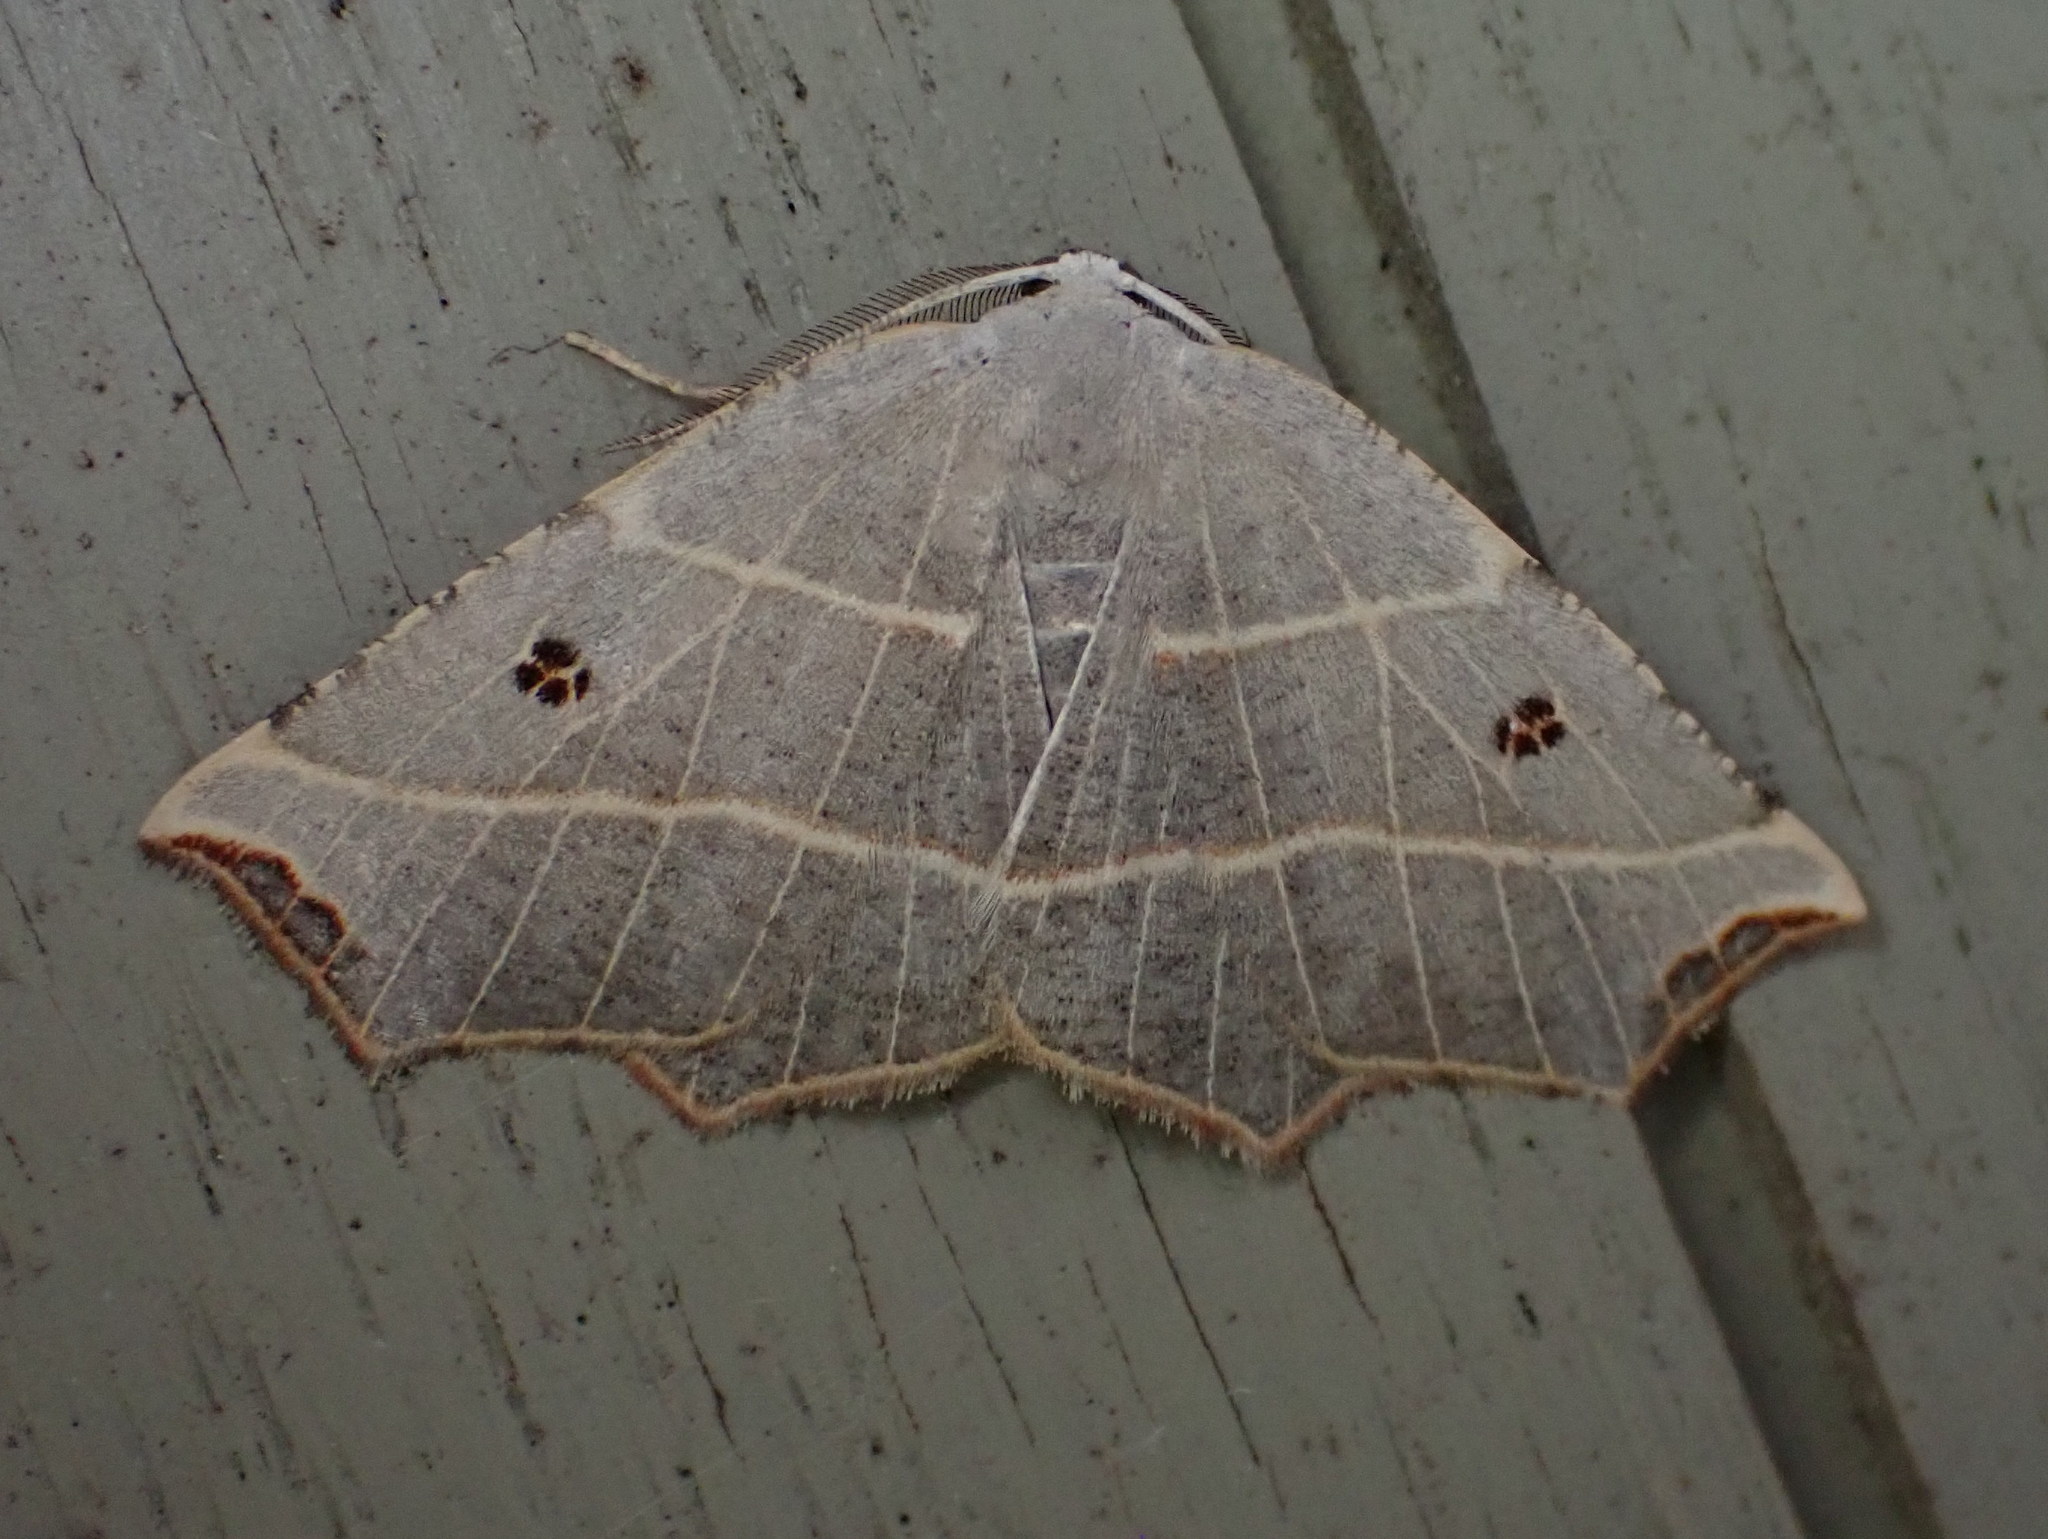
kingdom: Animalia
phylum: Arthropoda
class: Insecta
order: Lepidoptera
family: Geometridae
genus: Metanema
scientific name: Metanema inatomaria
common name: Pale metanema
